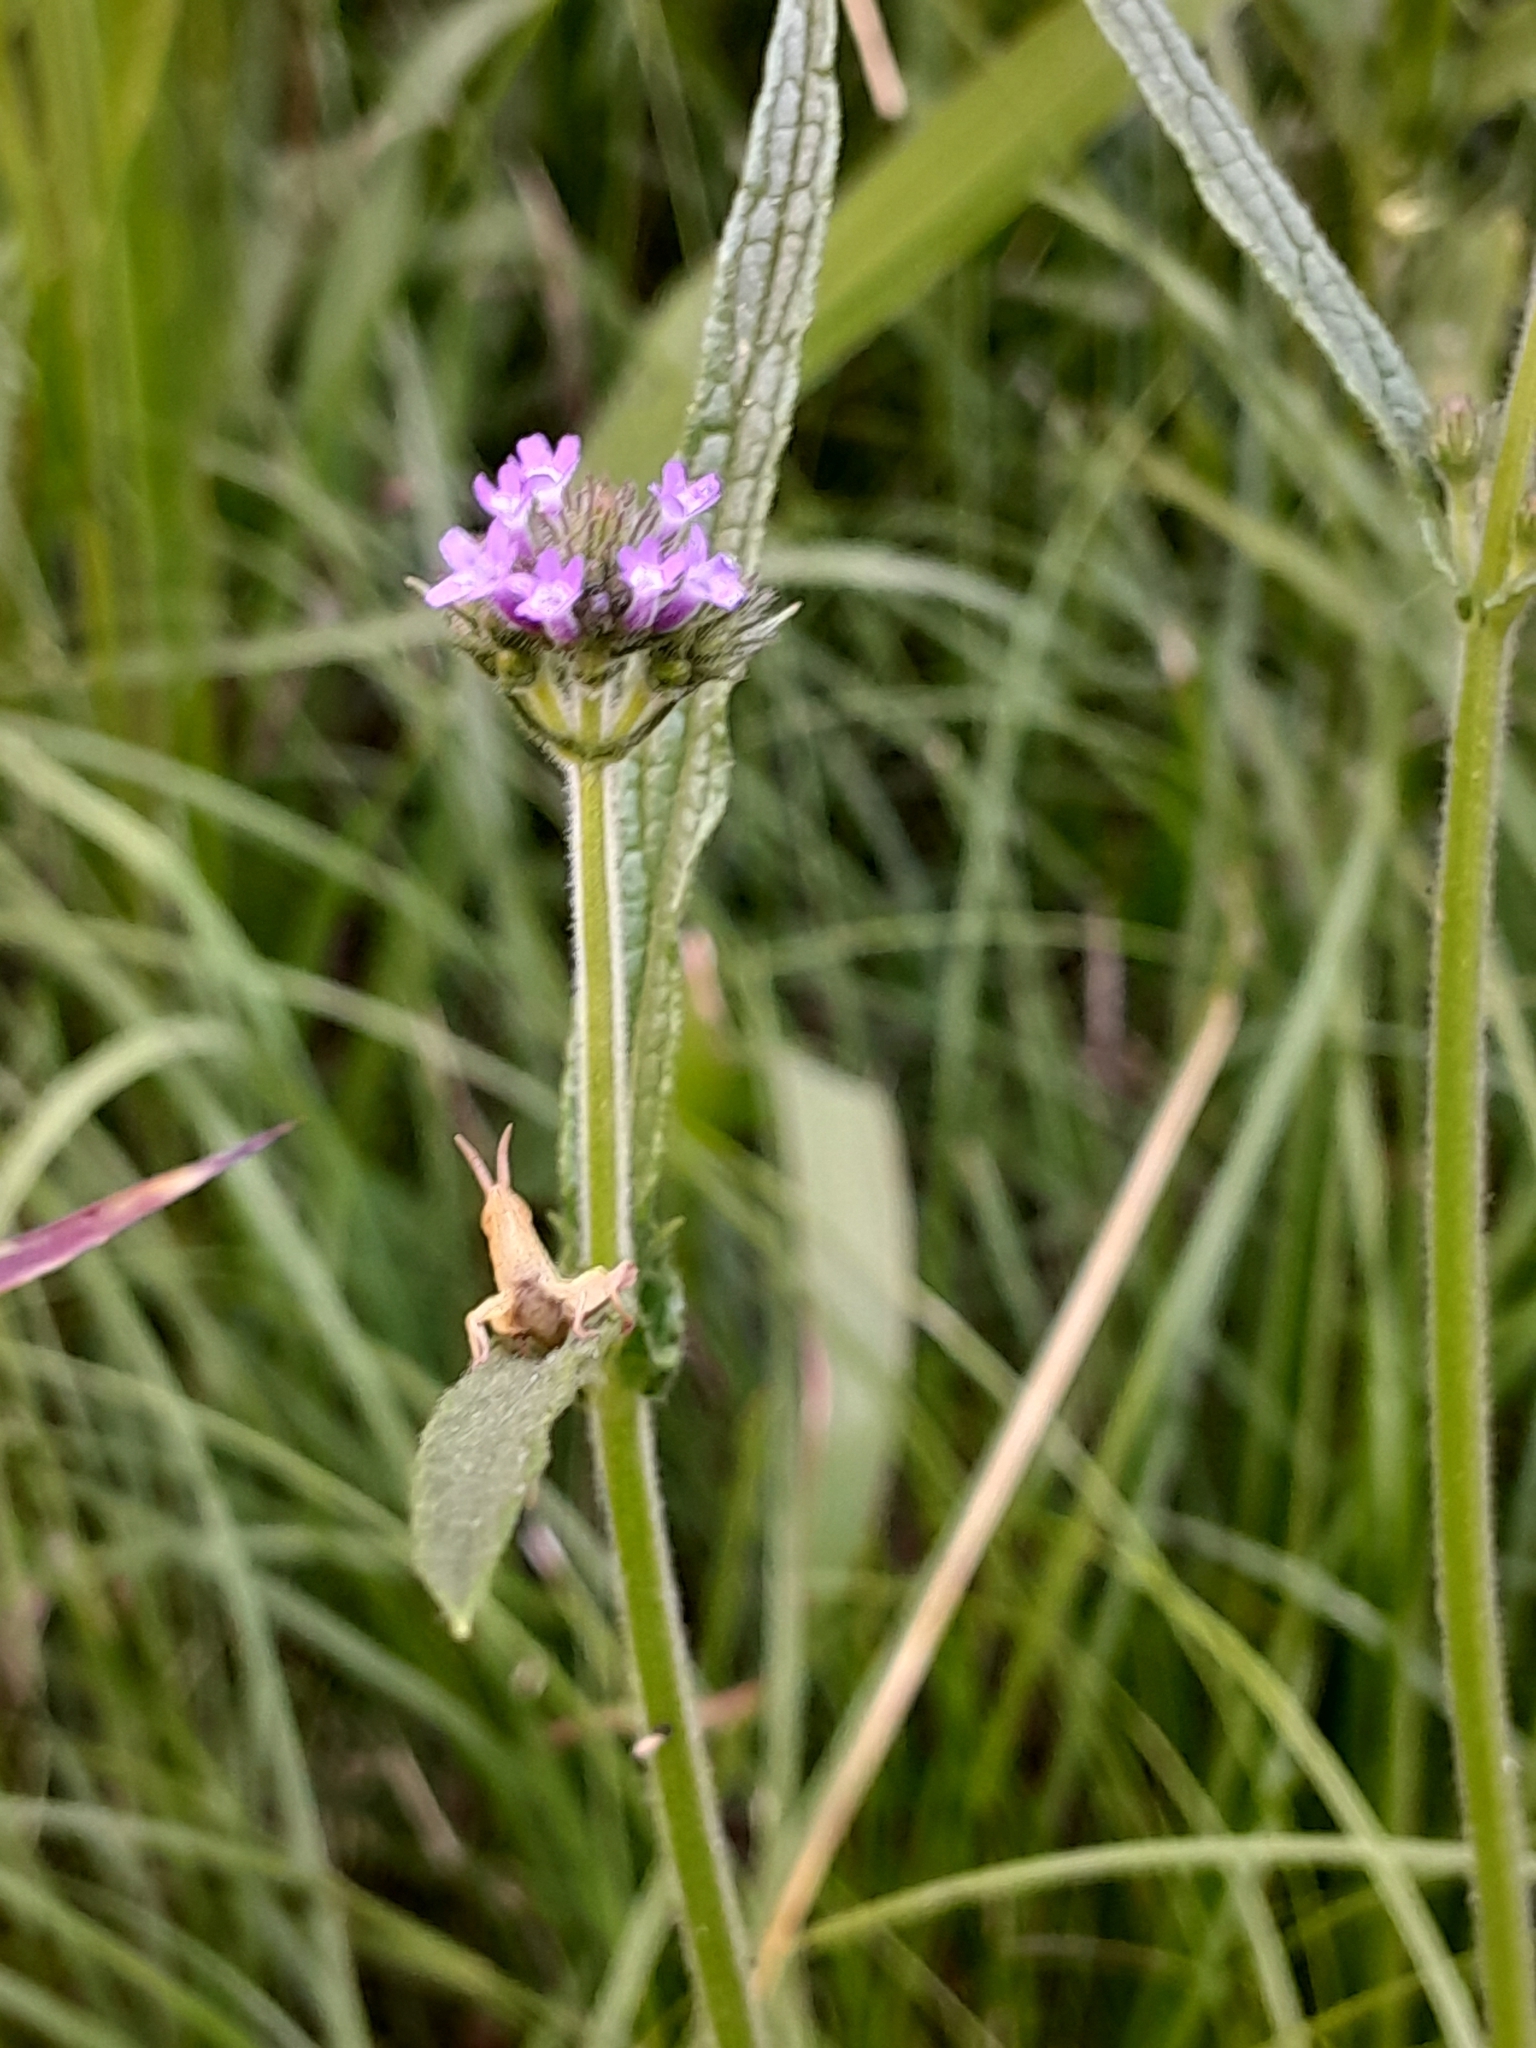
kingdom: Plantae
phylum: Tracheophyta
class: Magnoliopsida
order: Lamiales
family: Verbenaceae
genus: Verbena
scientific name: Verbena bonariensis
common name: Purpletop vervain
